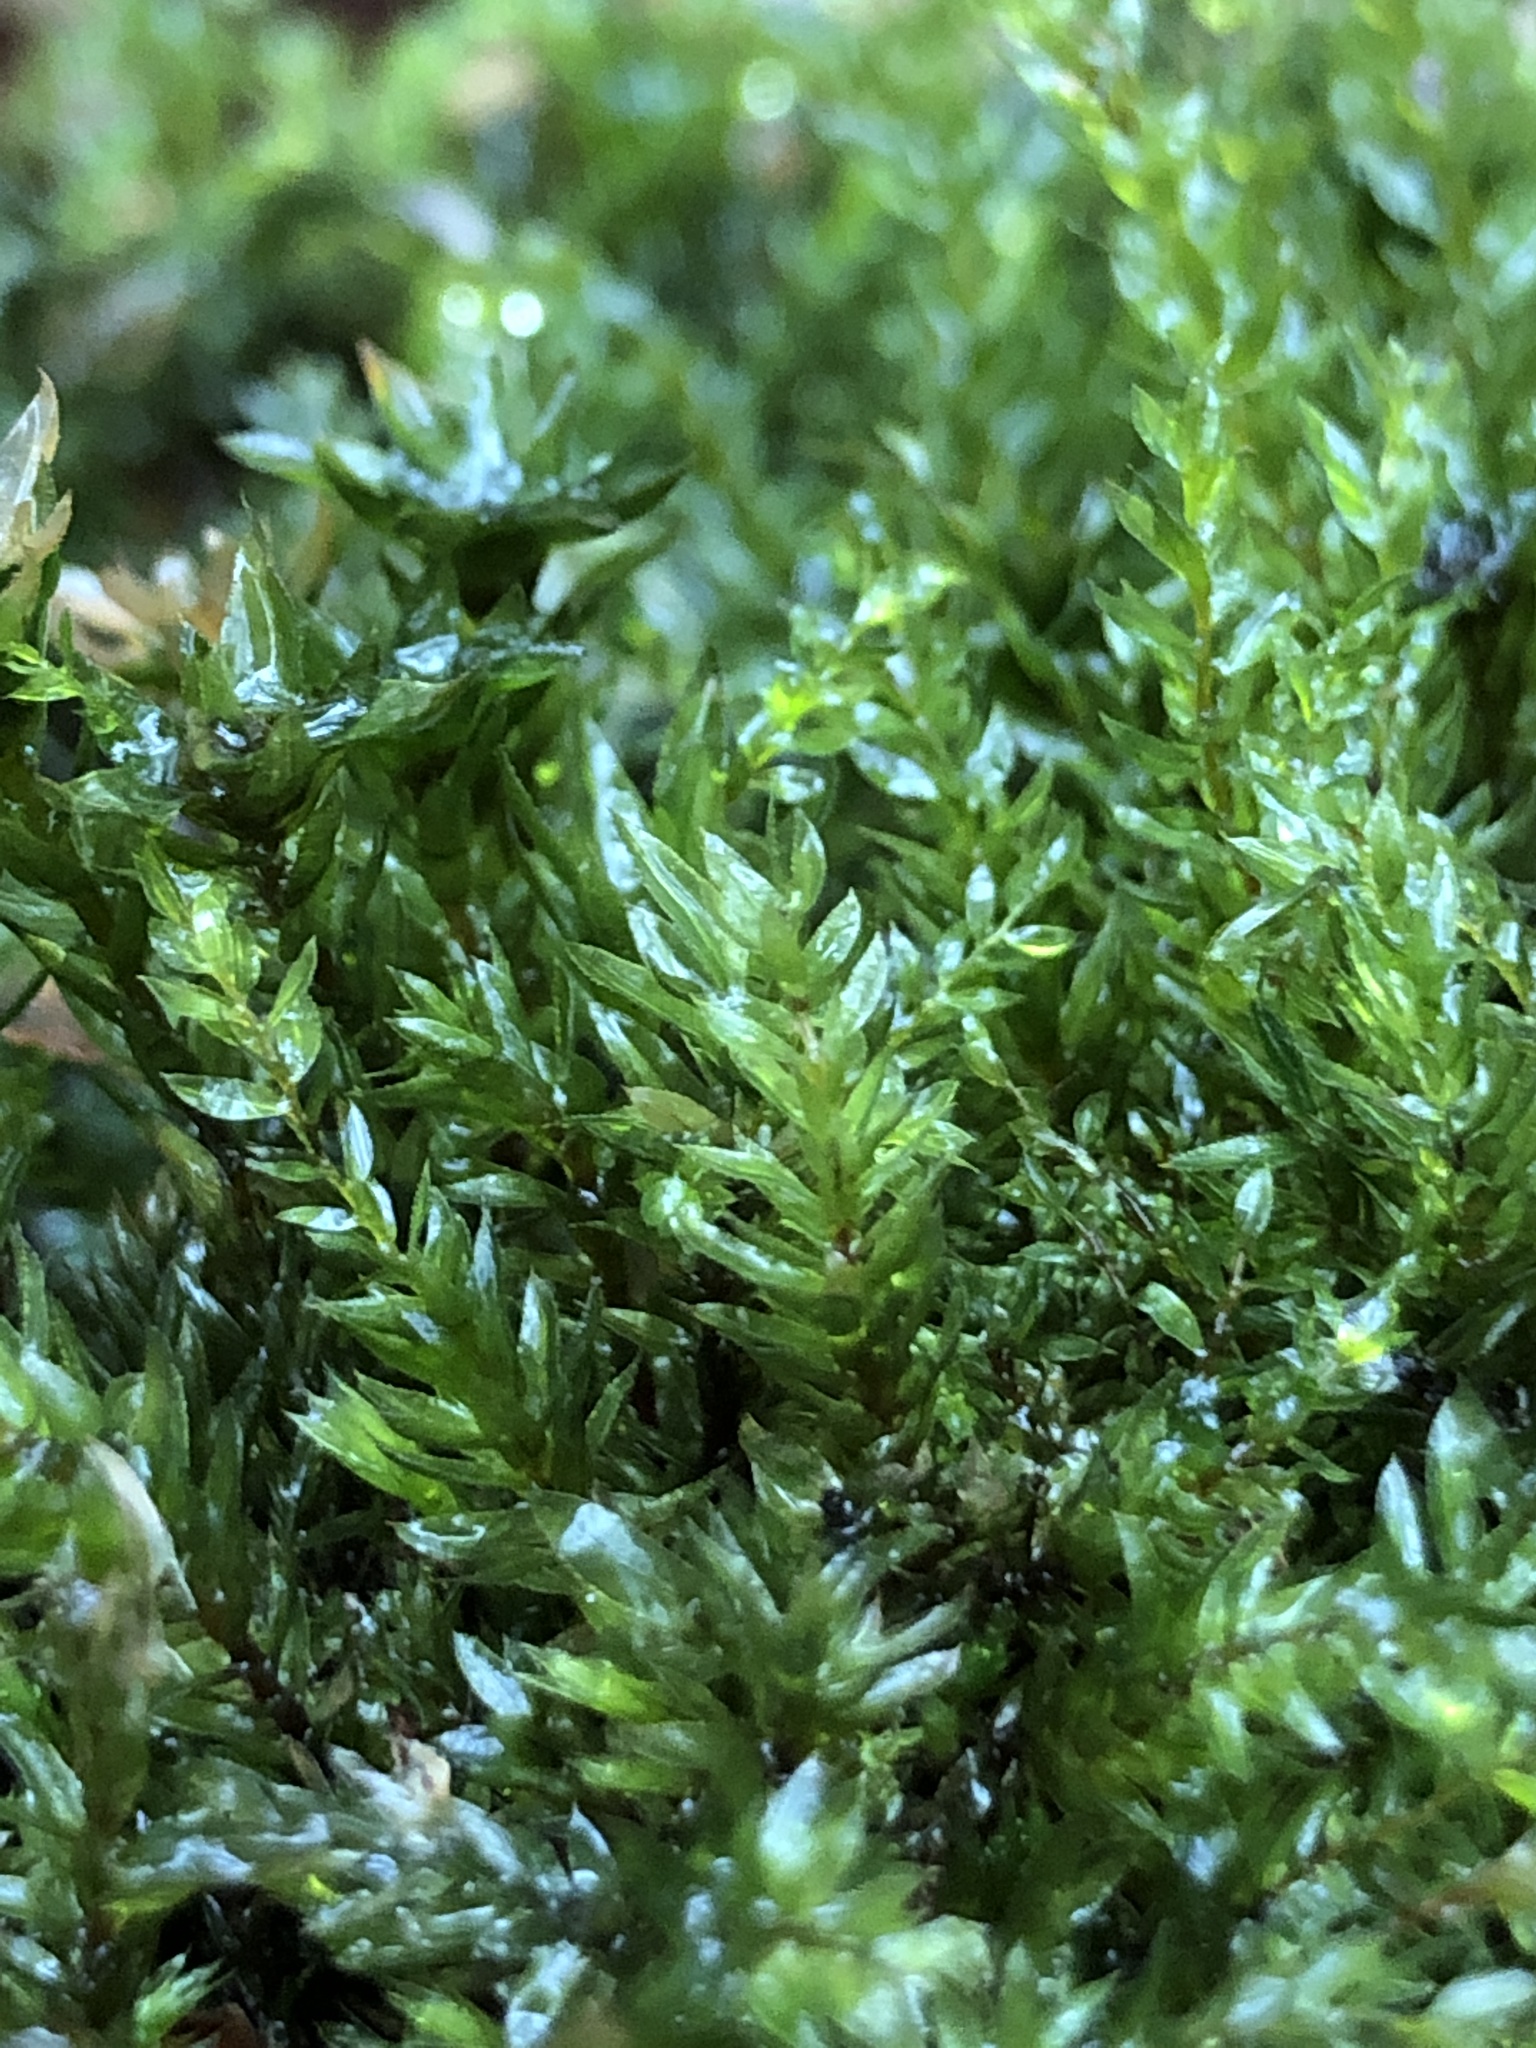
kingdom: Plantae
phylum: Bryophyta
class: Bryopsida
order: Bryales
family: Mniaceae
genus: Mnium
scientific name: Mnium hornum
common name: Swan's-neck leafy moss
